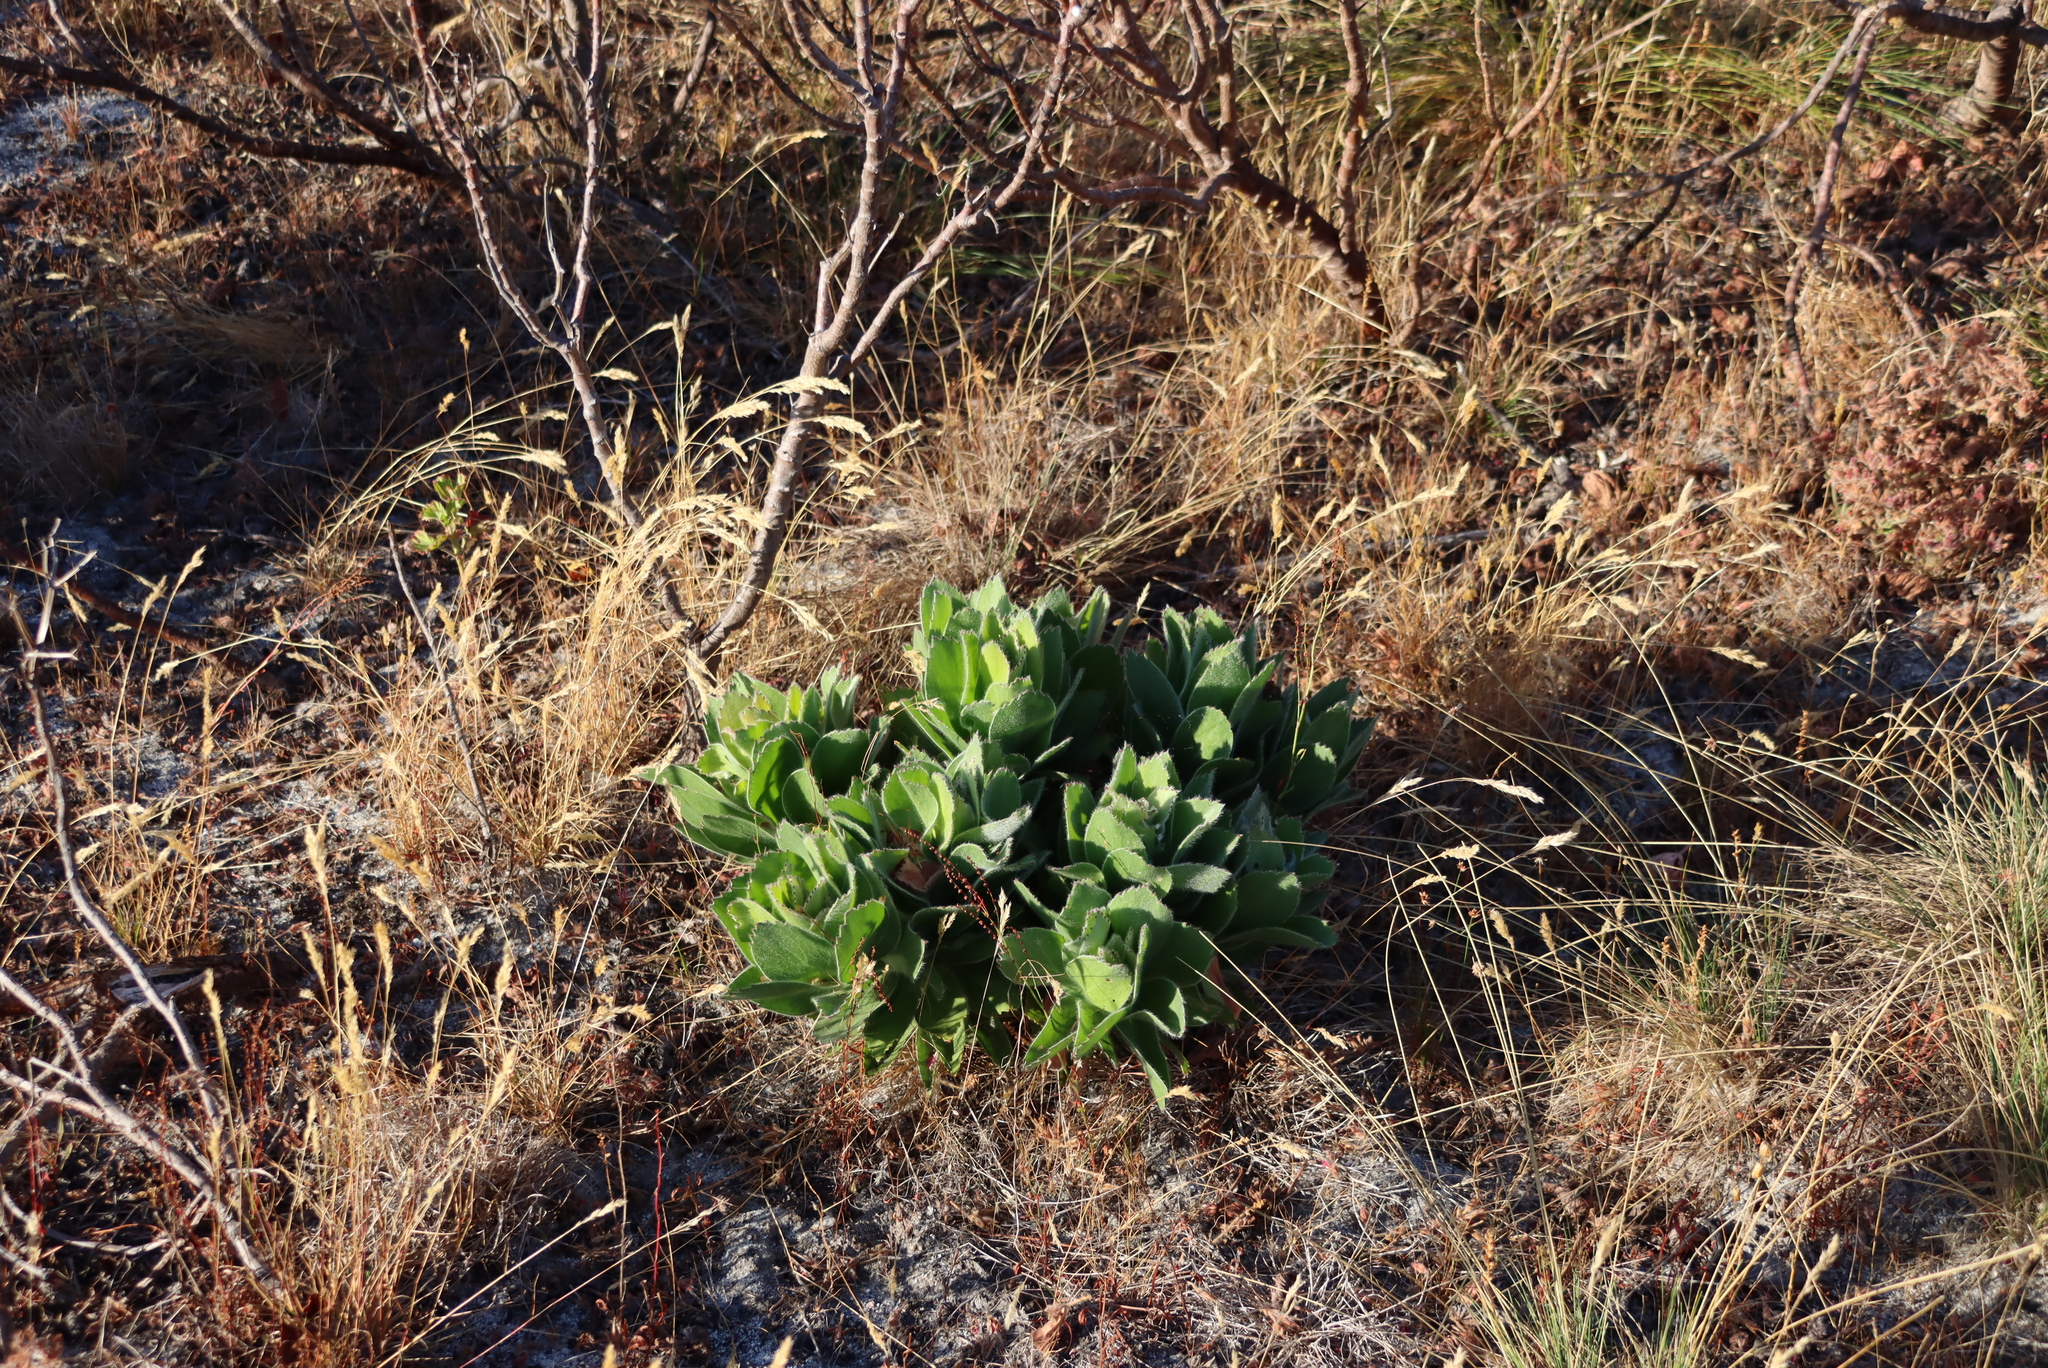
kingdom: Plantae
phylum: Tracheophyta
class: Magnoliopsida
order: Proteales
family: Proteaceae
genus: Leucospermum
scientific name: Leucospermum conocarpodendron
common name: Tree pincushion
